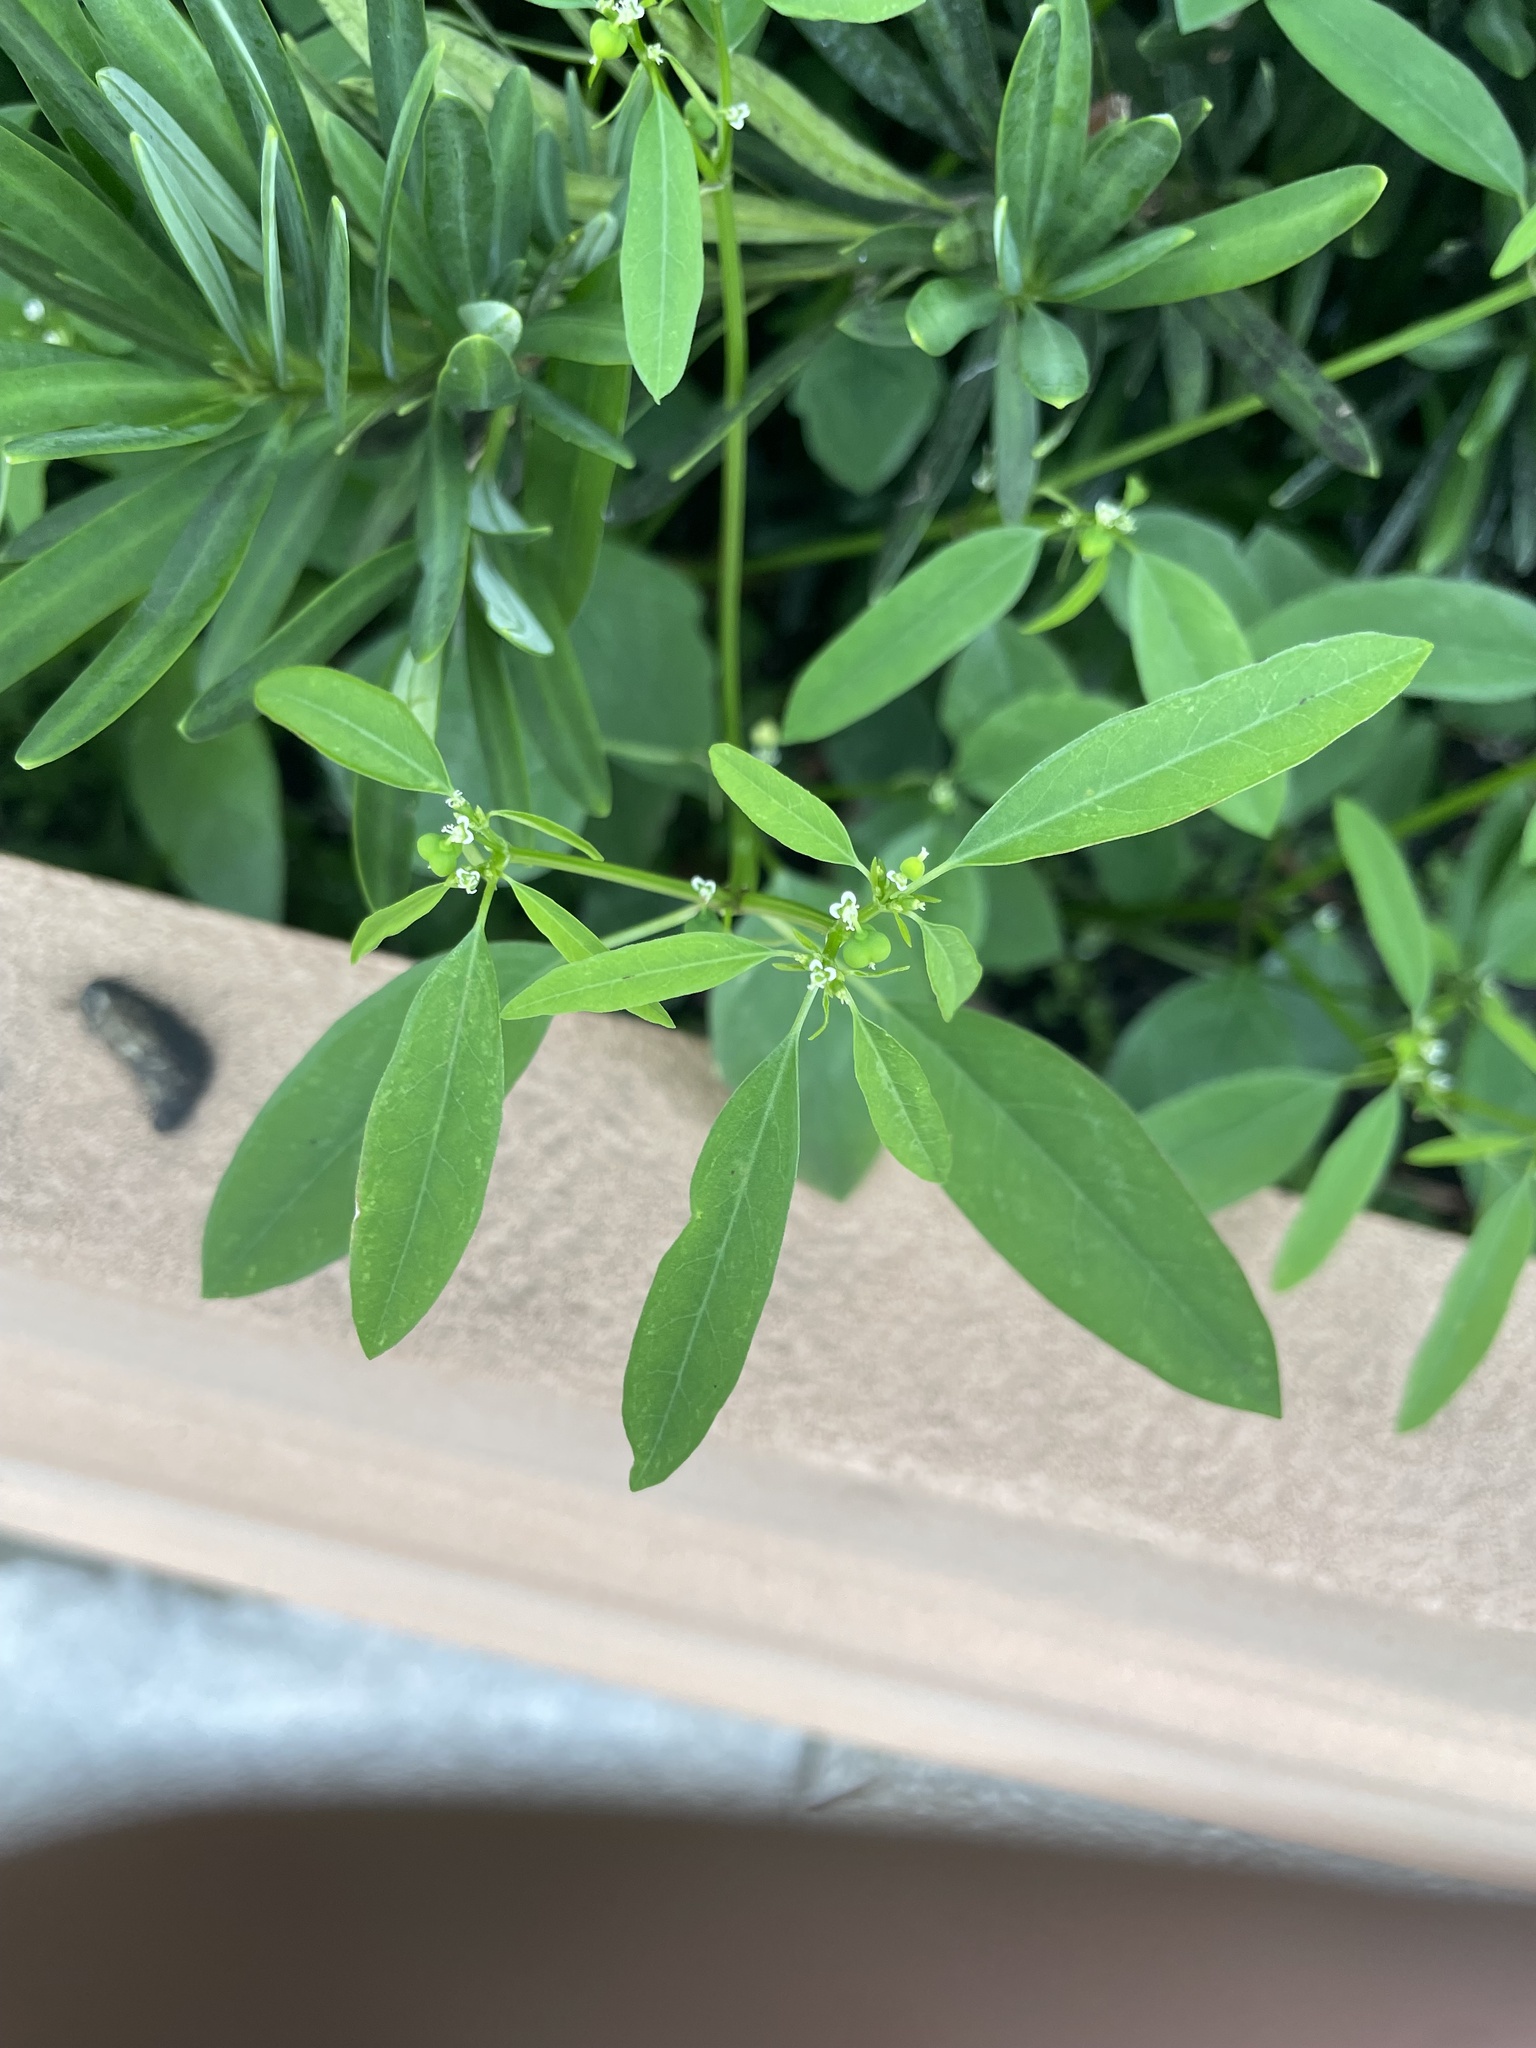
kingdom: Plantae
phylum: Tracheophyta
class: Magnoliopsida
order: Malpighiales
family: Euphorbiaceae
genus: Euphorbia
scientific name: Euphorbia graminea
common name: Grassleaf spurge
